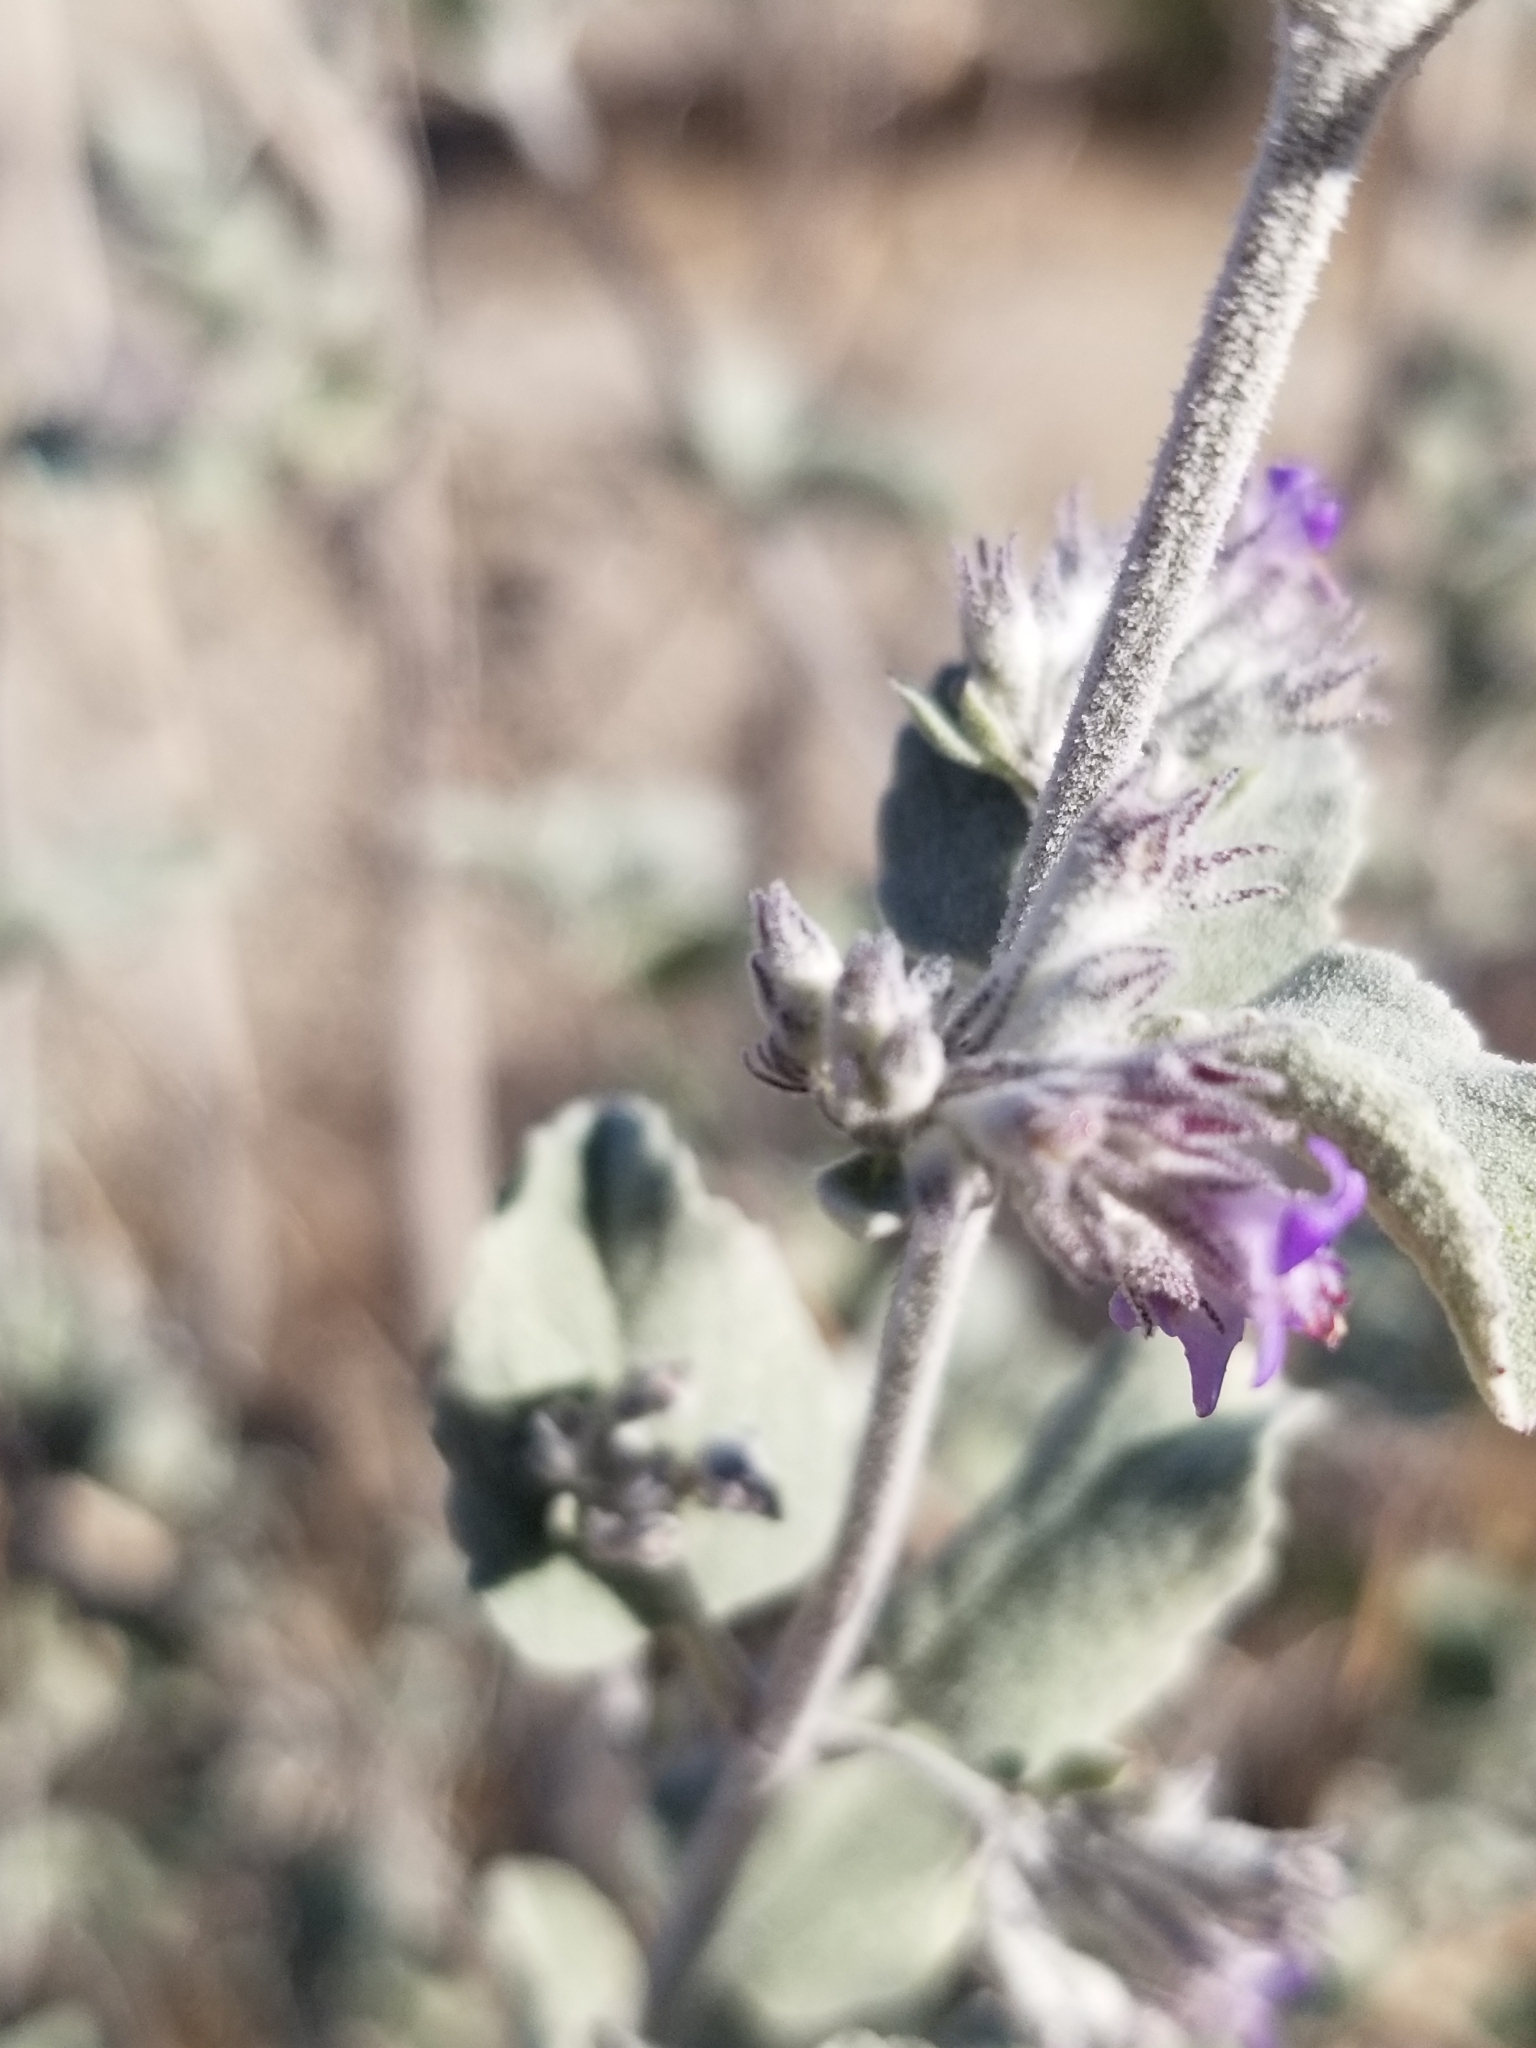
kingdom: Plantae
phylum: Tracheophyta
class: Magnoliopsida
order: Lamiales
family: Lamiaceae
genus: Condea
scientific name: Condea emoryi
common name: Chia
